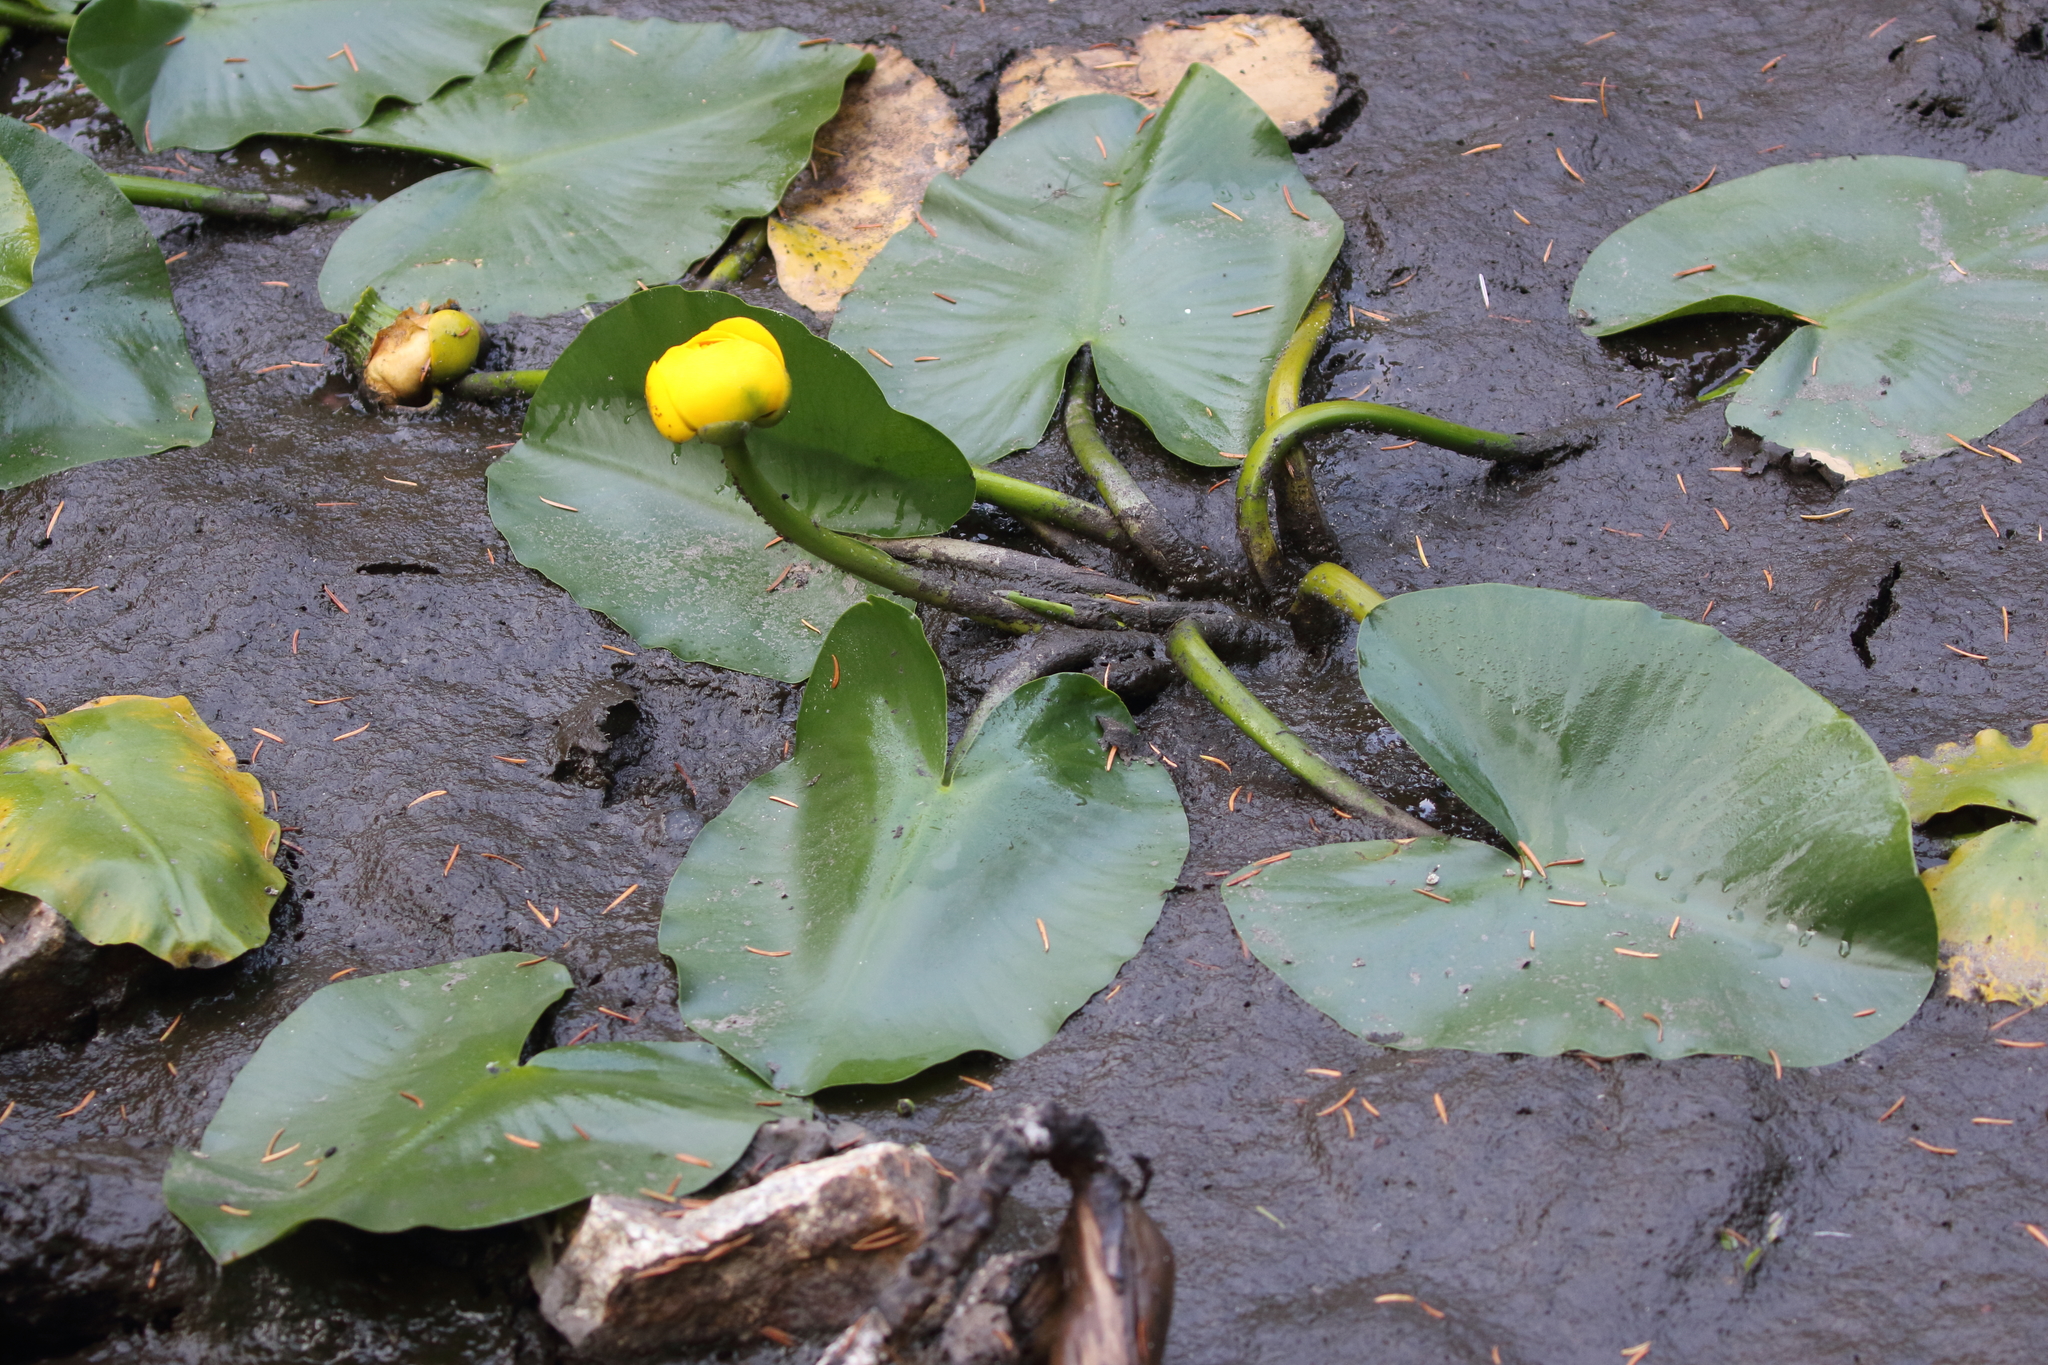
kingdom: Plantae
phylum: Tracheophyta
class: Magnoliopsida
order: Nymphaeales
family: Nymphaeaceae
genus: Nuphar
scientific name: Nuphar polysepala
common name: Rocky mountain cow-lily
